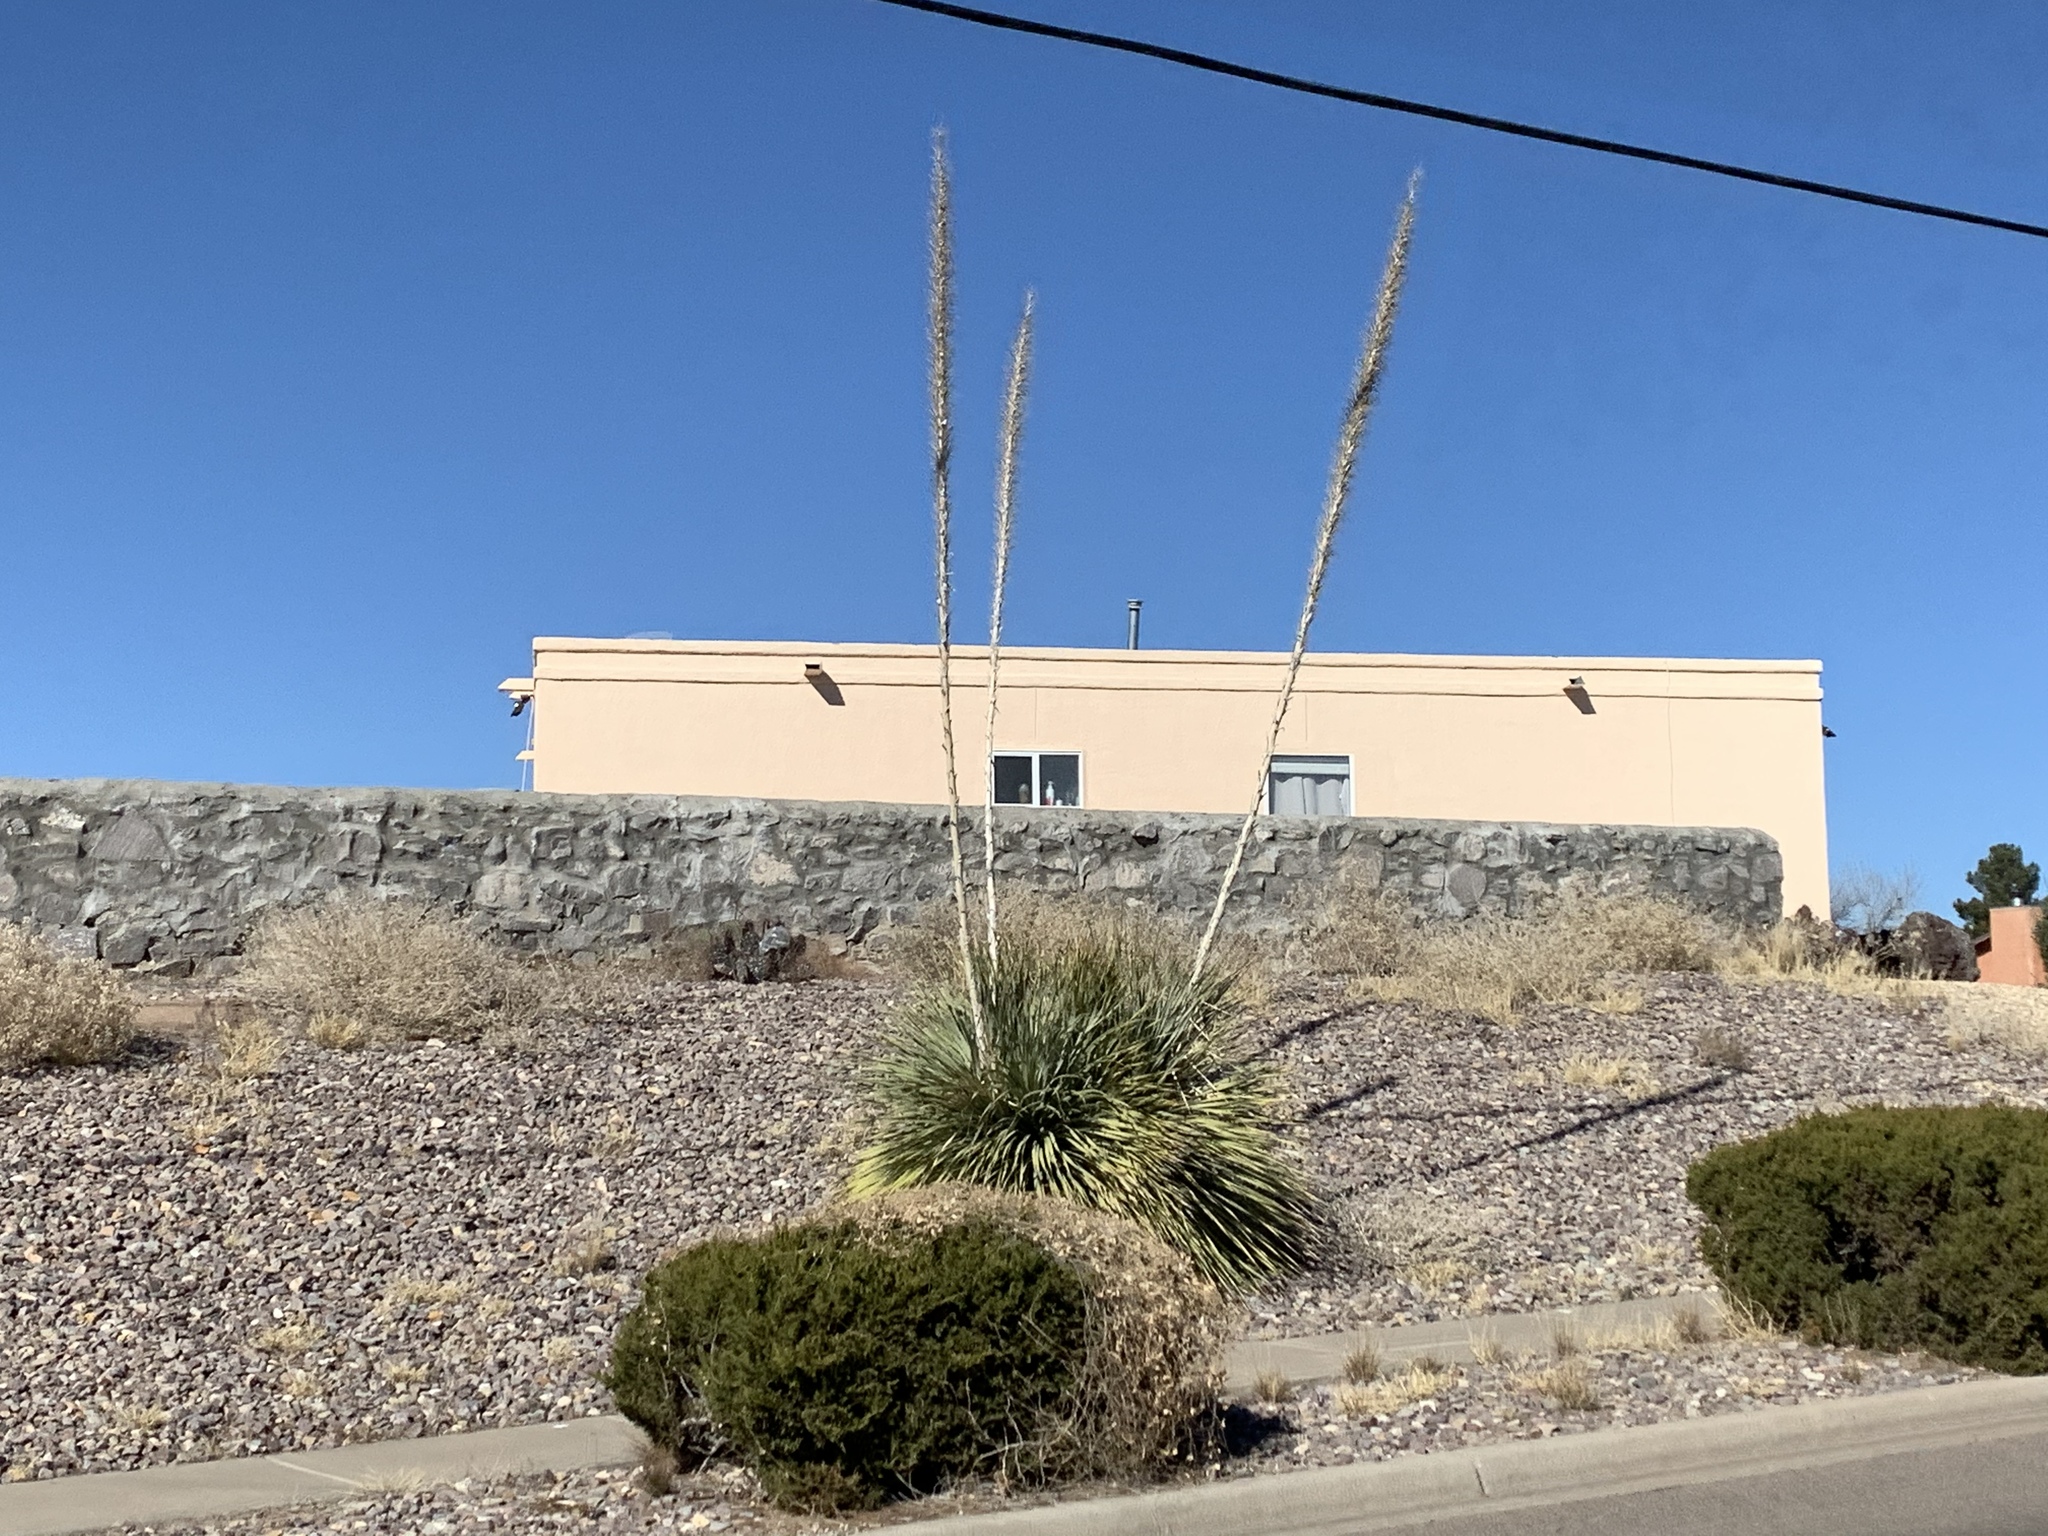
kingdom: Plantae
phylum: Tracheophyta
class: Liliopsida
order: Asparagales
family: Asparagaceae
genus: Dasylirion
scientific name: Dasylirion wheeleri
